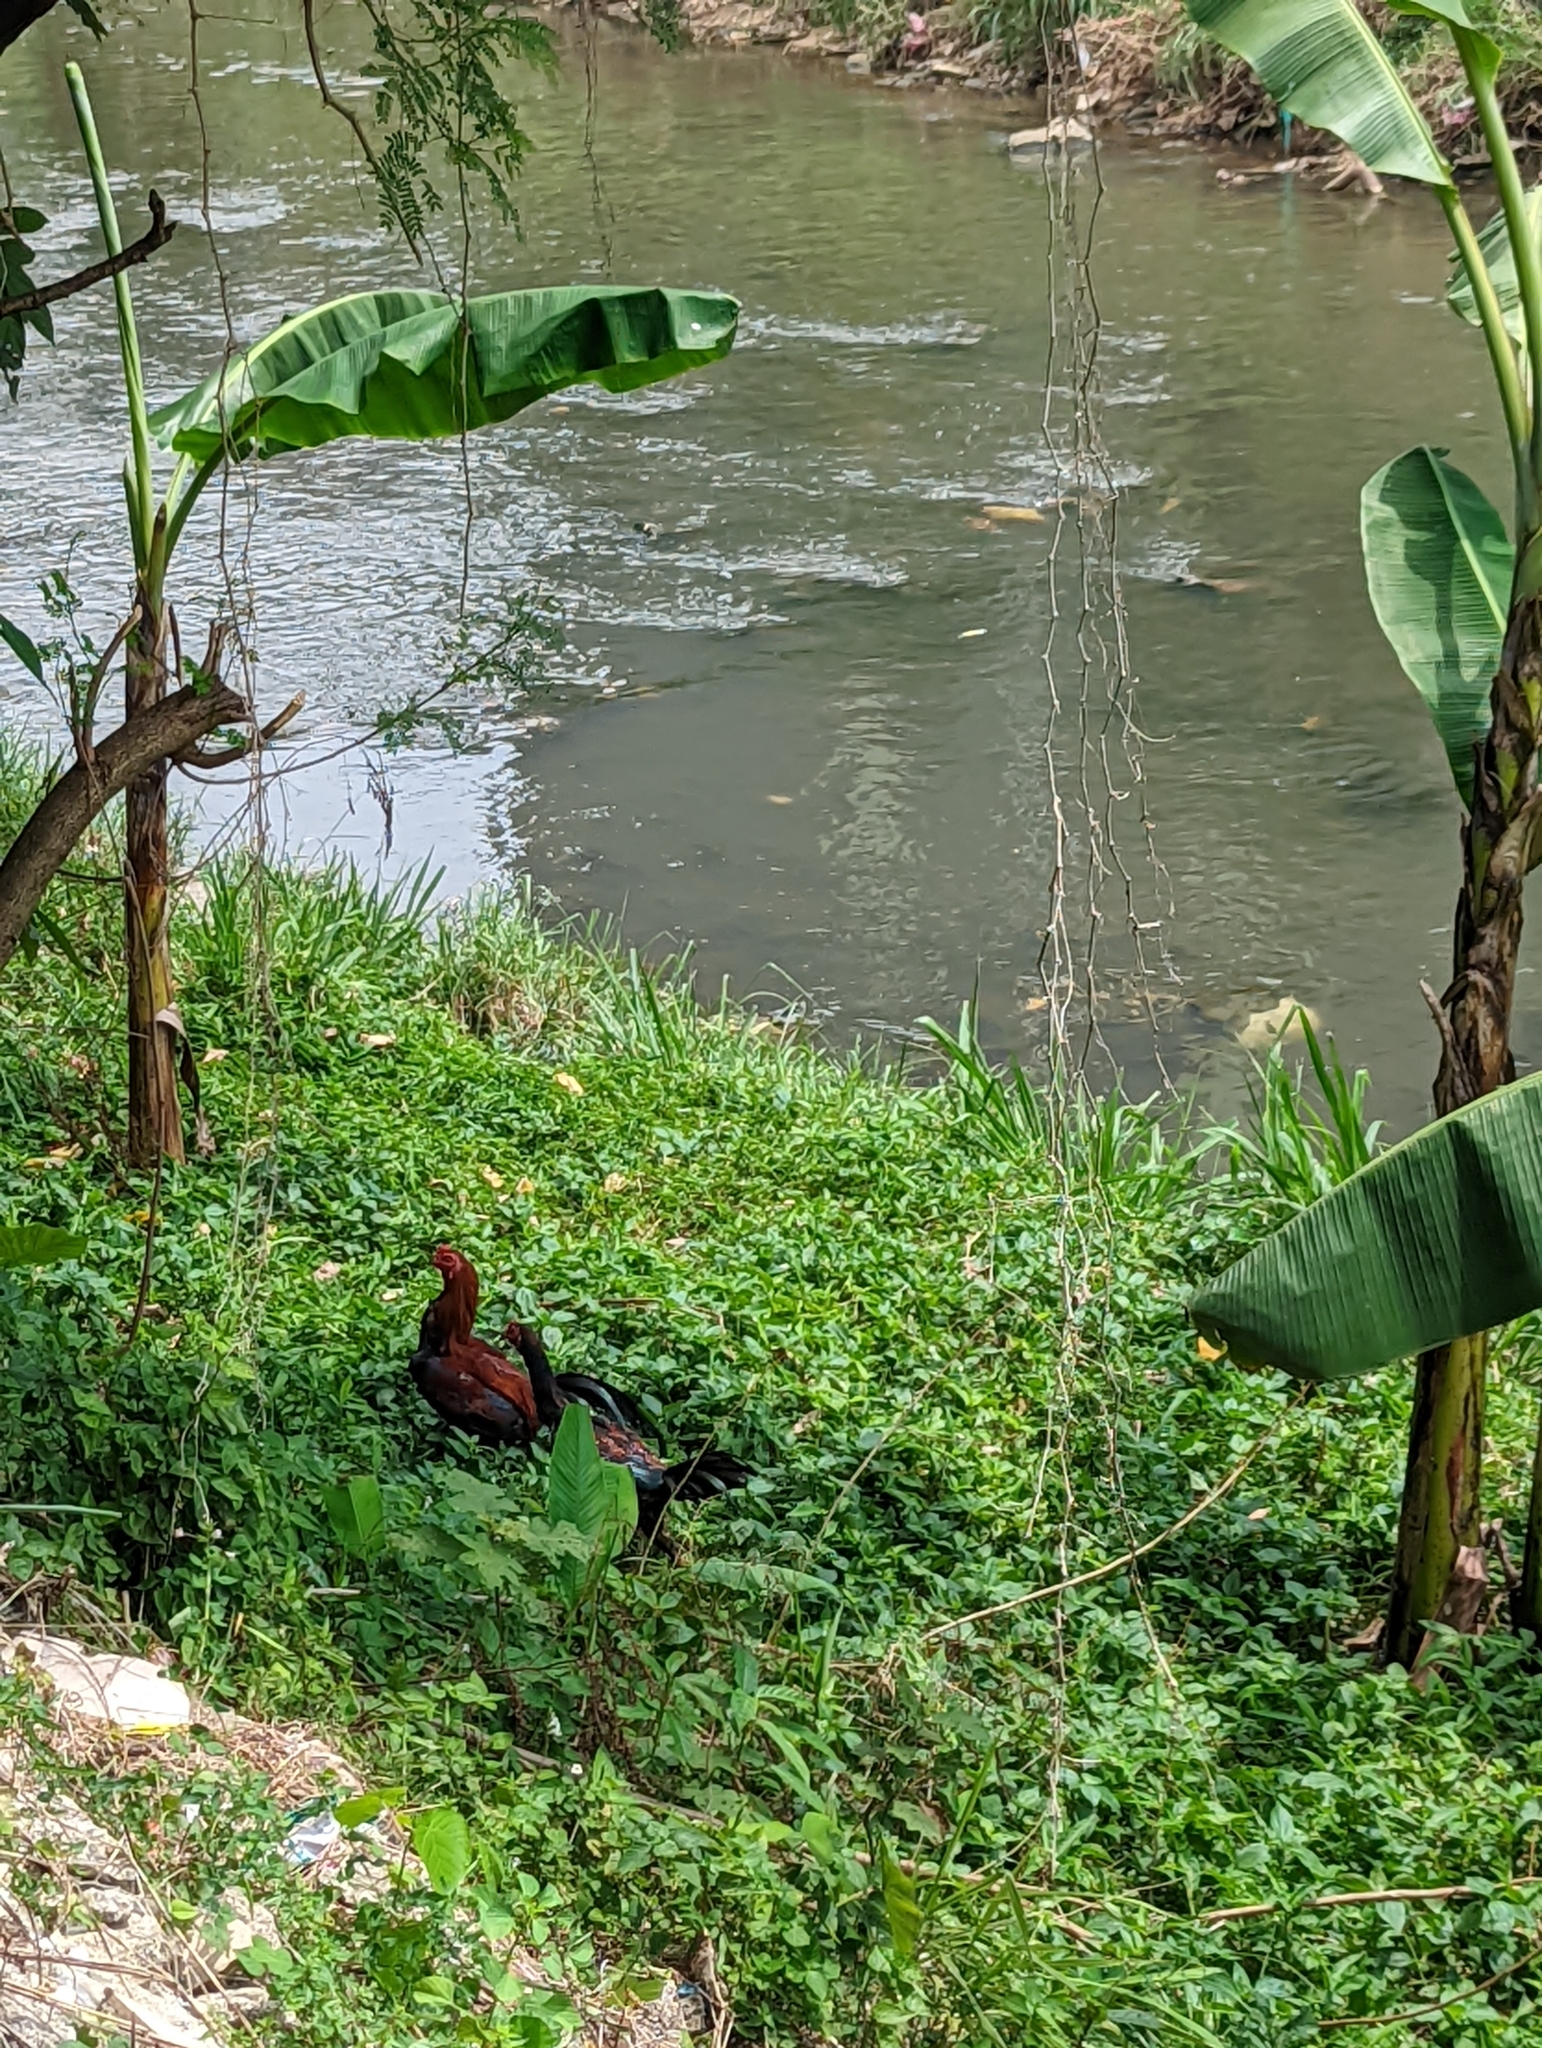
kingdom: Animalia
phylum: Chordata
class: Aves
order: Galliformes
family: Phasianidae
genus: Gallus
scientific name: Gallus gallus
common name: Red junglefowl
